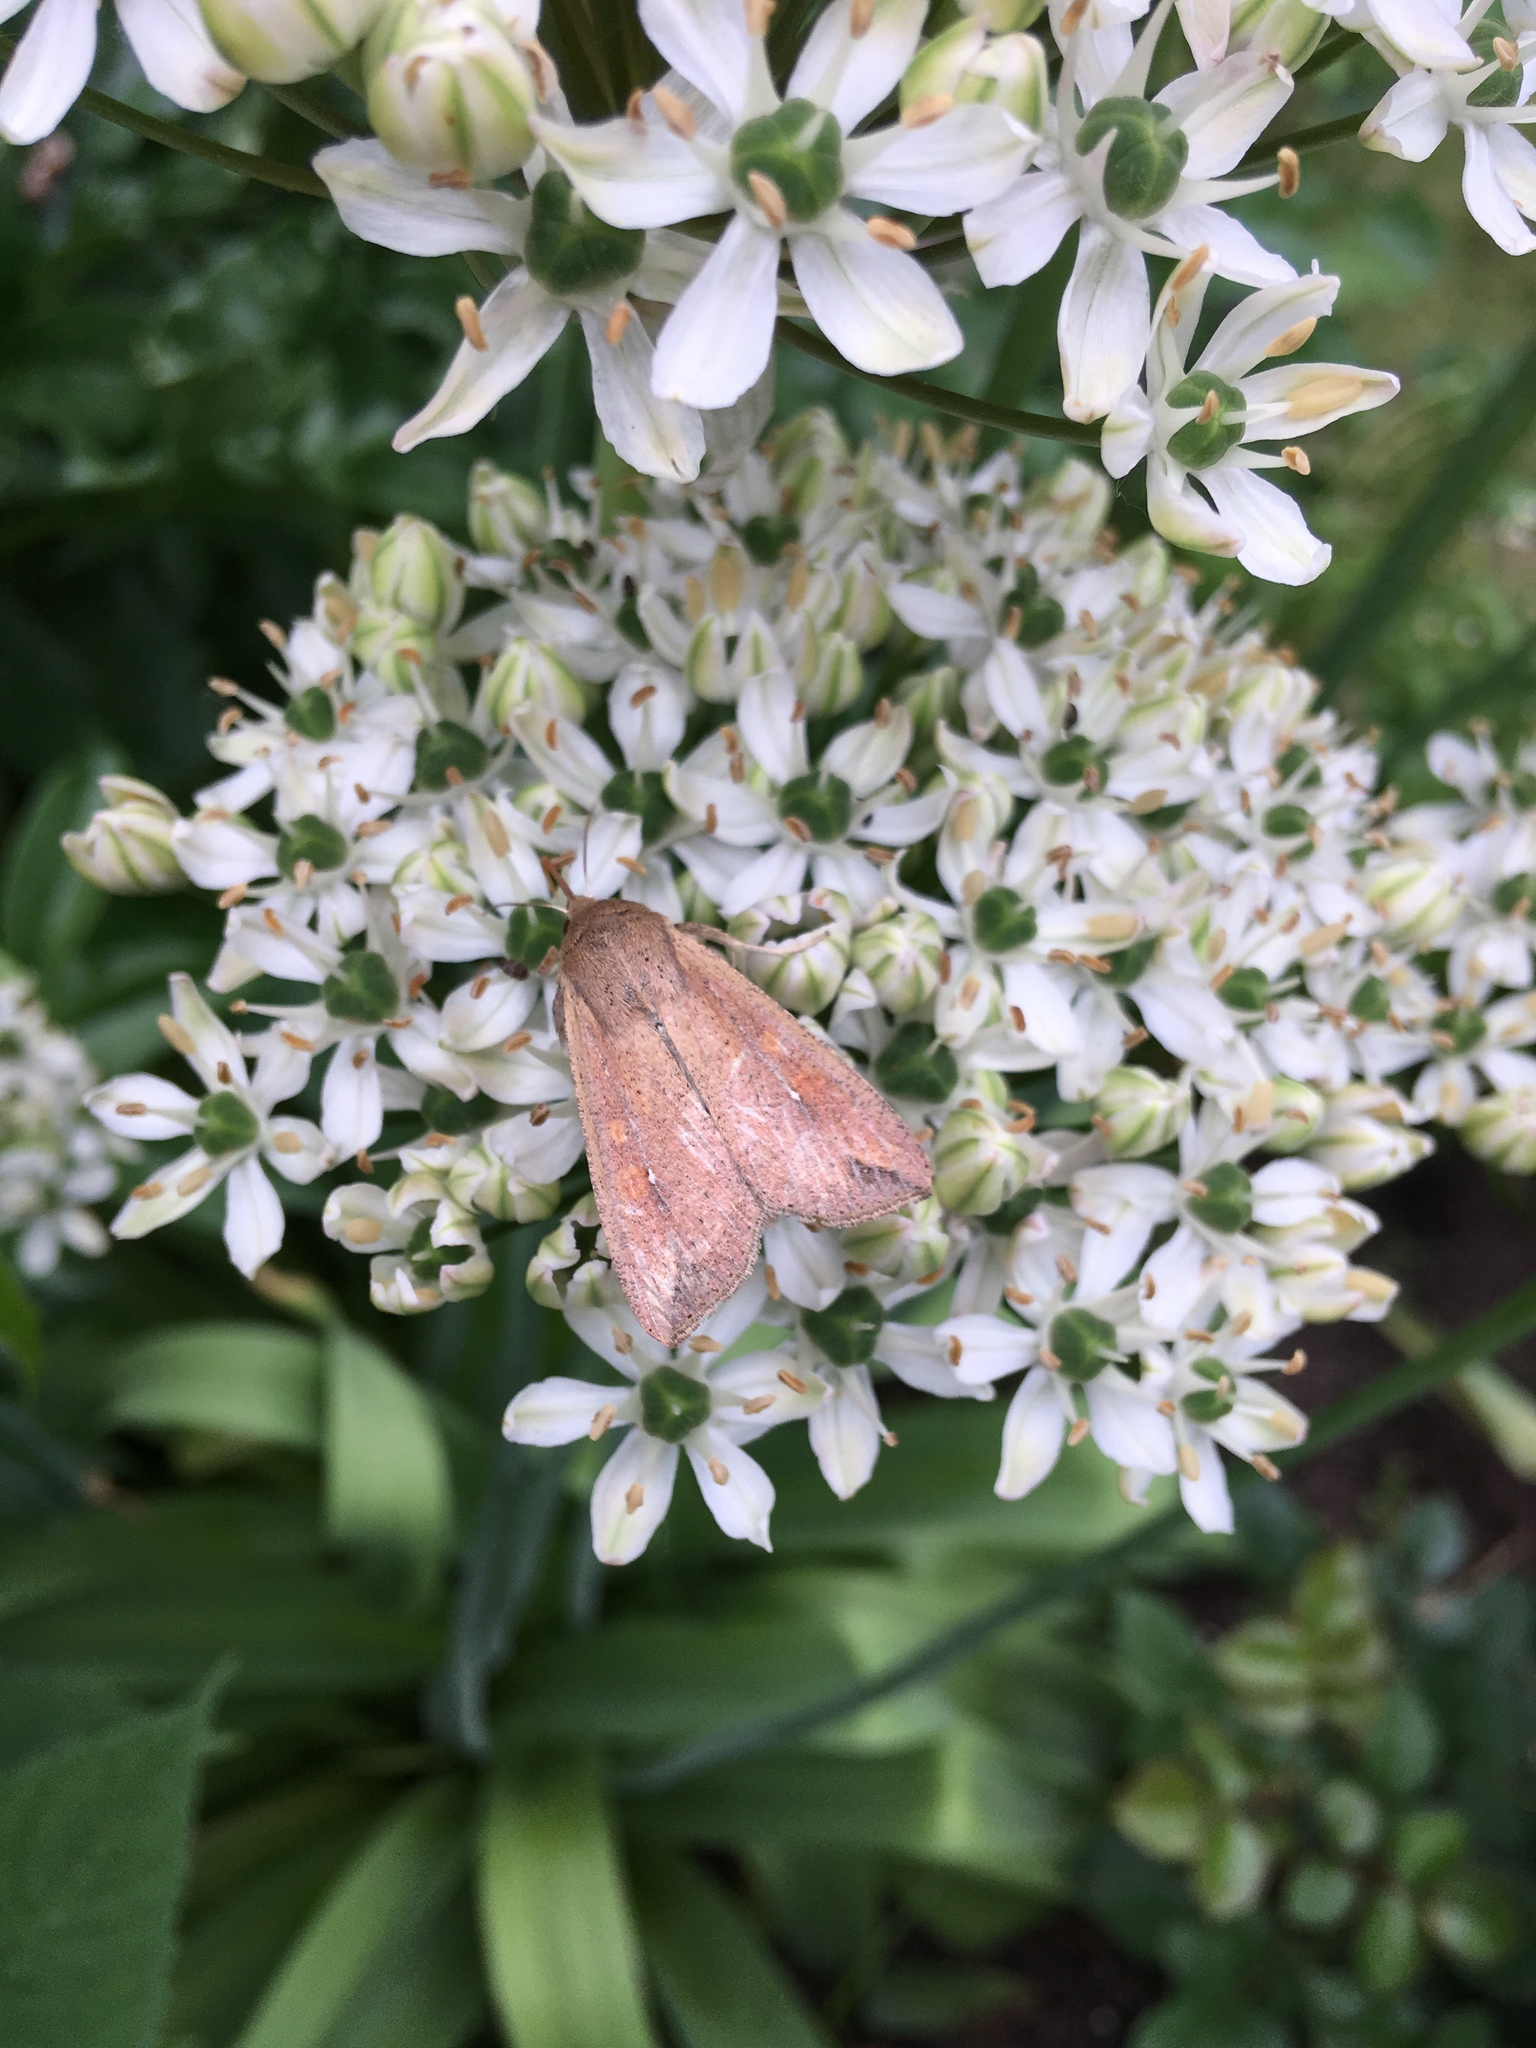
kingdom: Animalia
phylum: Arthropoda
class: Insecta
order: Lepidoptera
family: Noctuidae
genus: Mythimna
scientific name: Mythimna unipuncta
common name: White-speck
